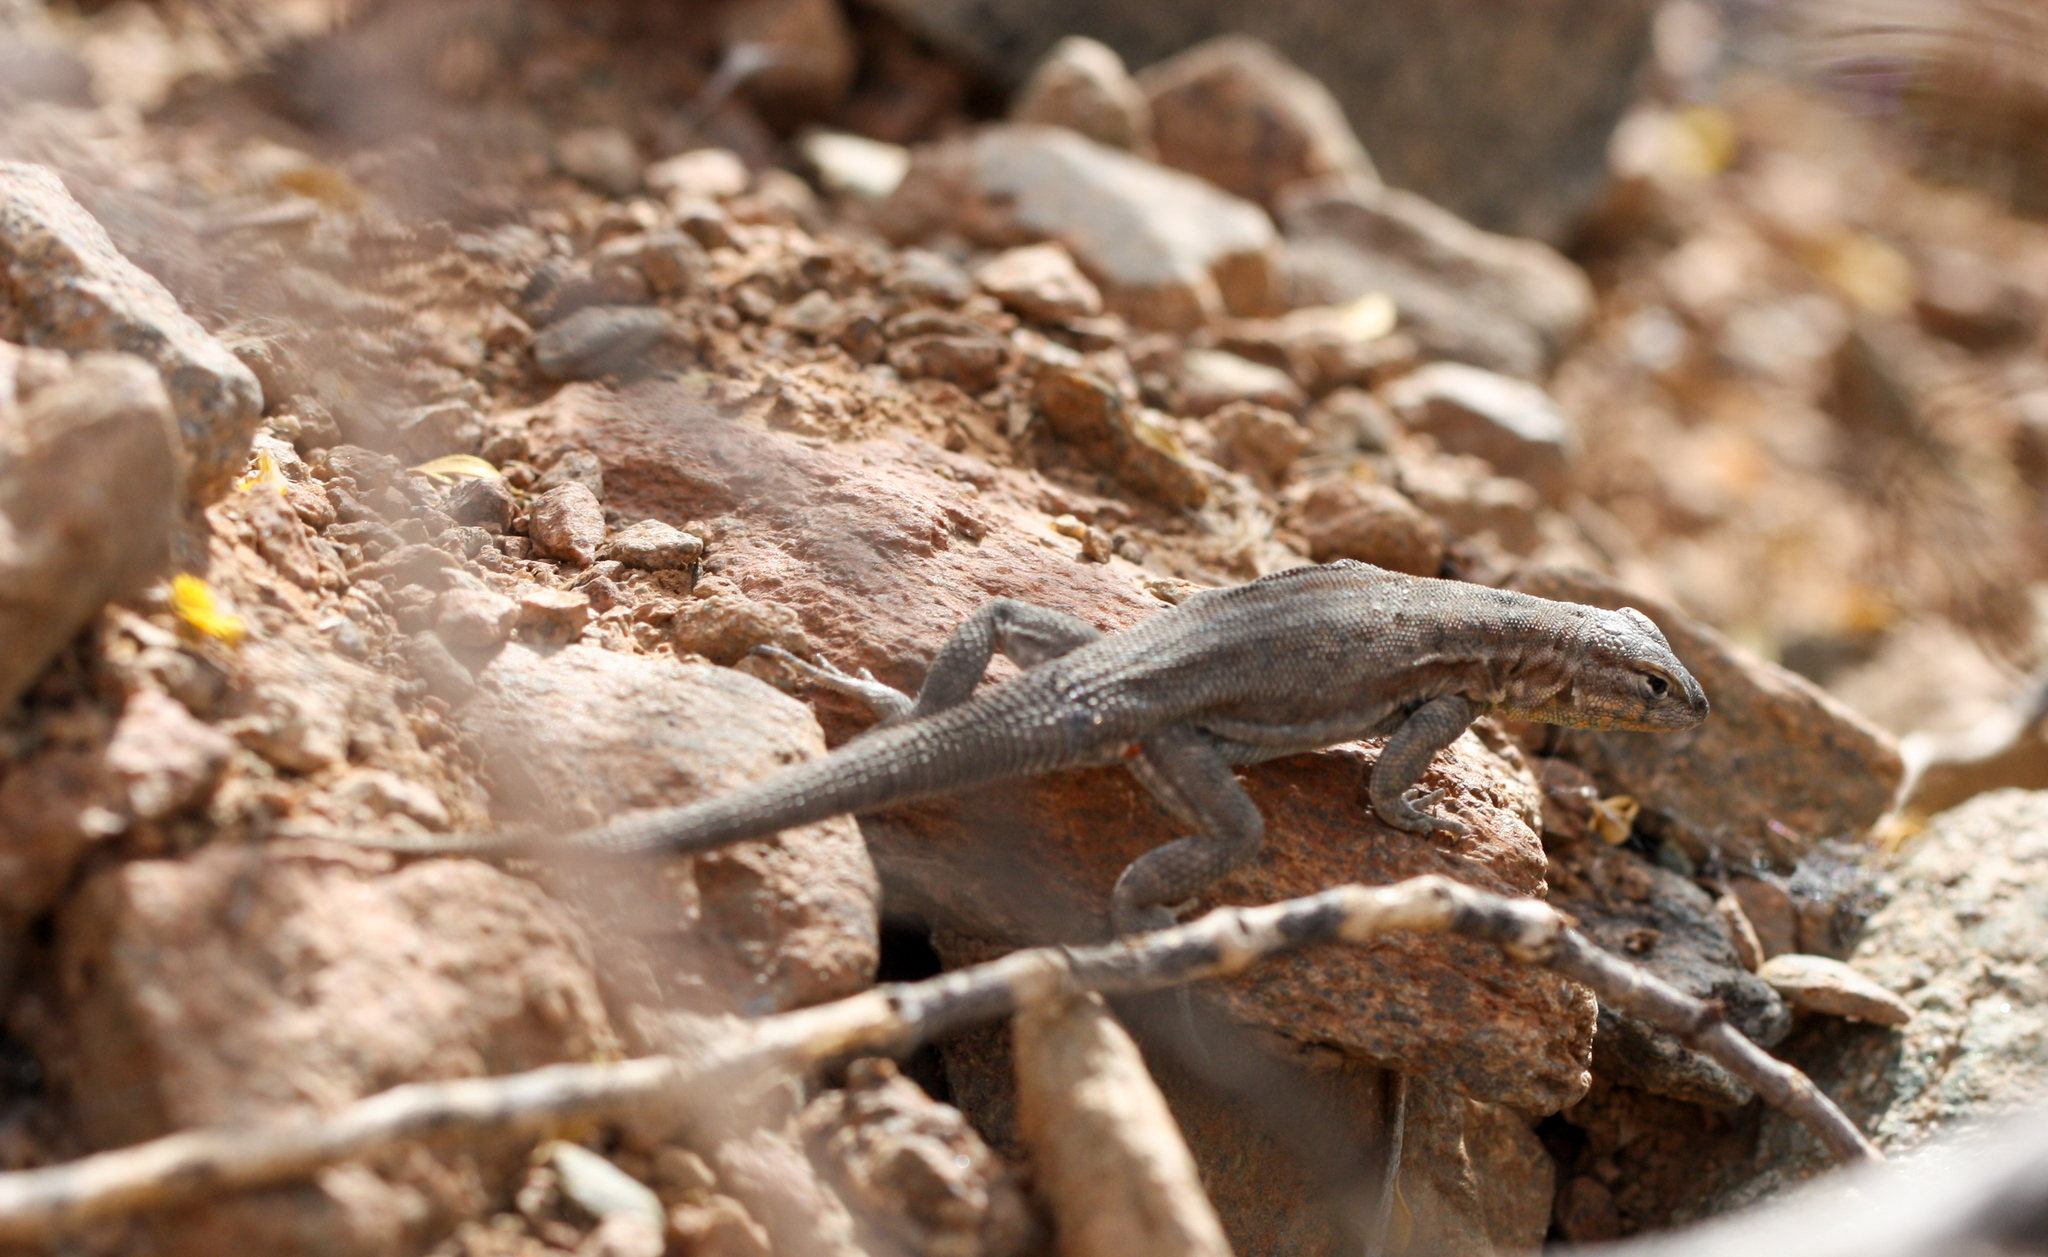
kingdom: Animalia
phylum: Chordata
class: Squamata
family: Phrynosomatidae
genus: Uta
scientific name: Uta stansburiana
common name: Side-blotched lizard
